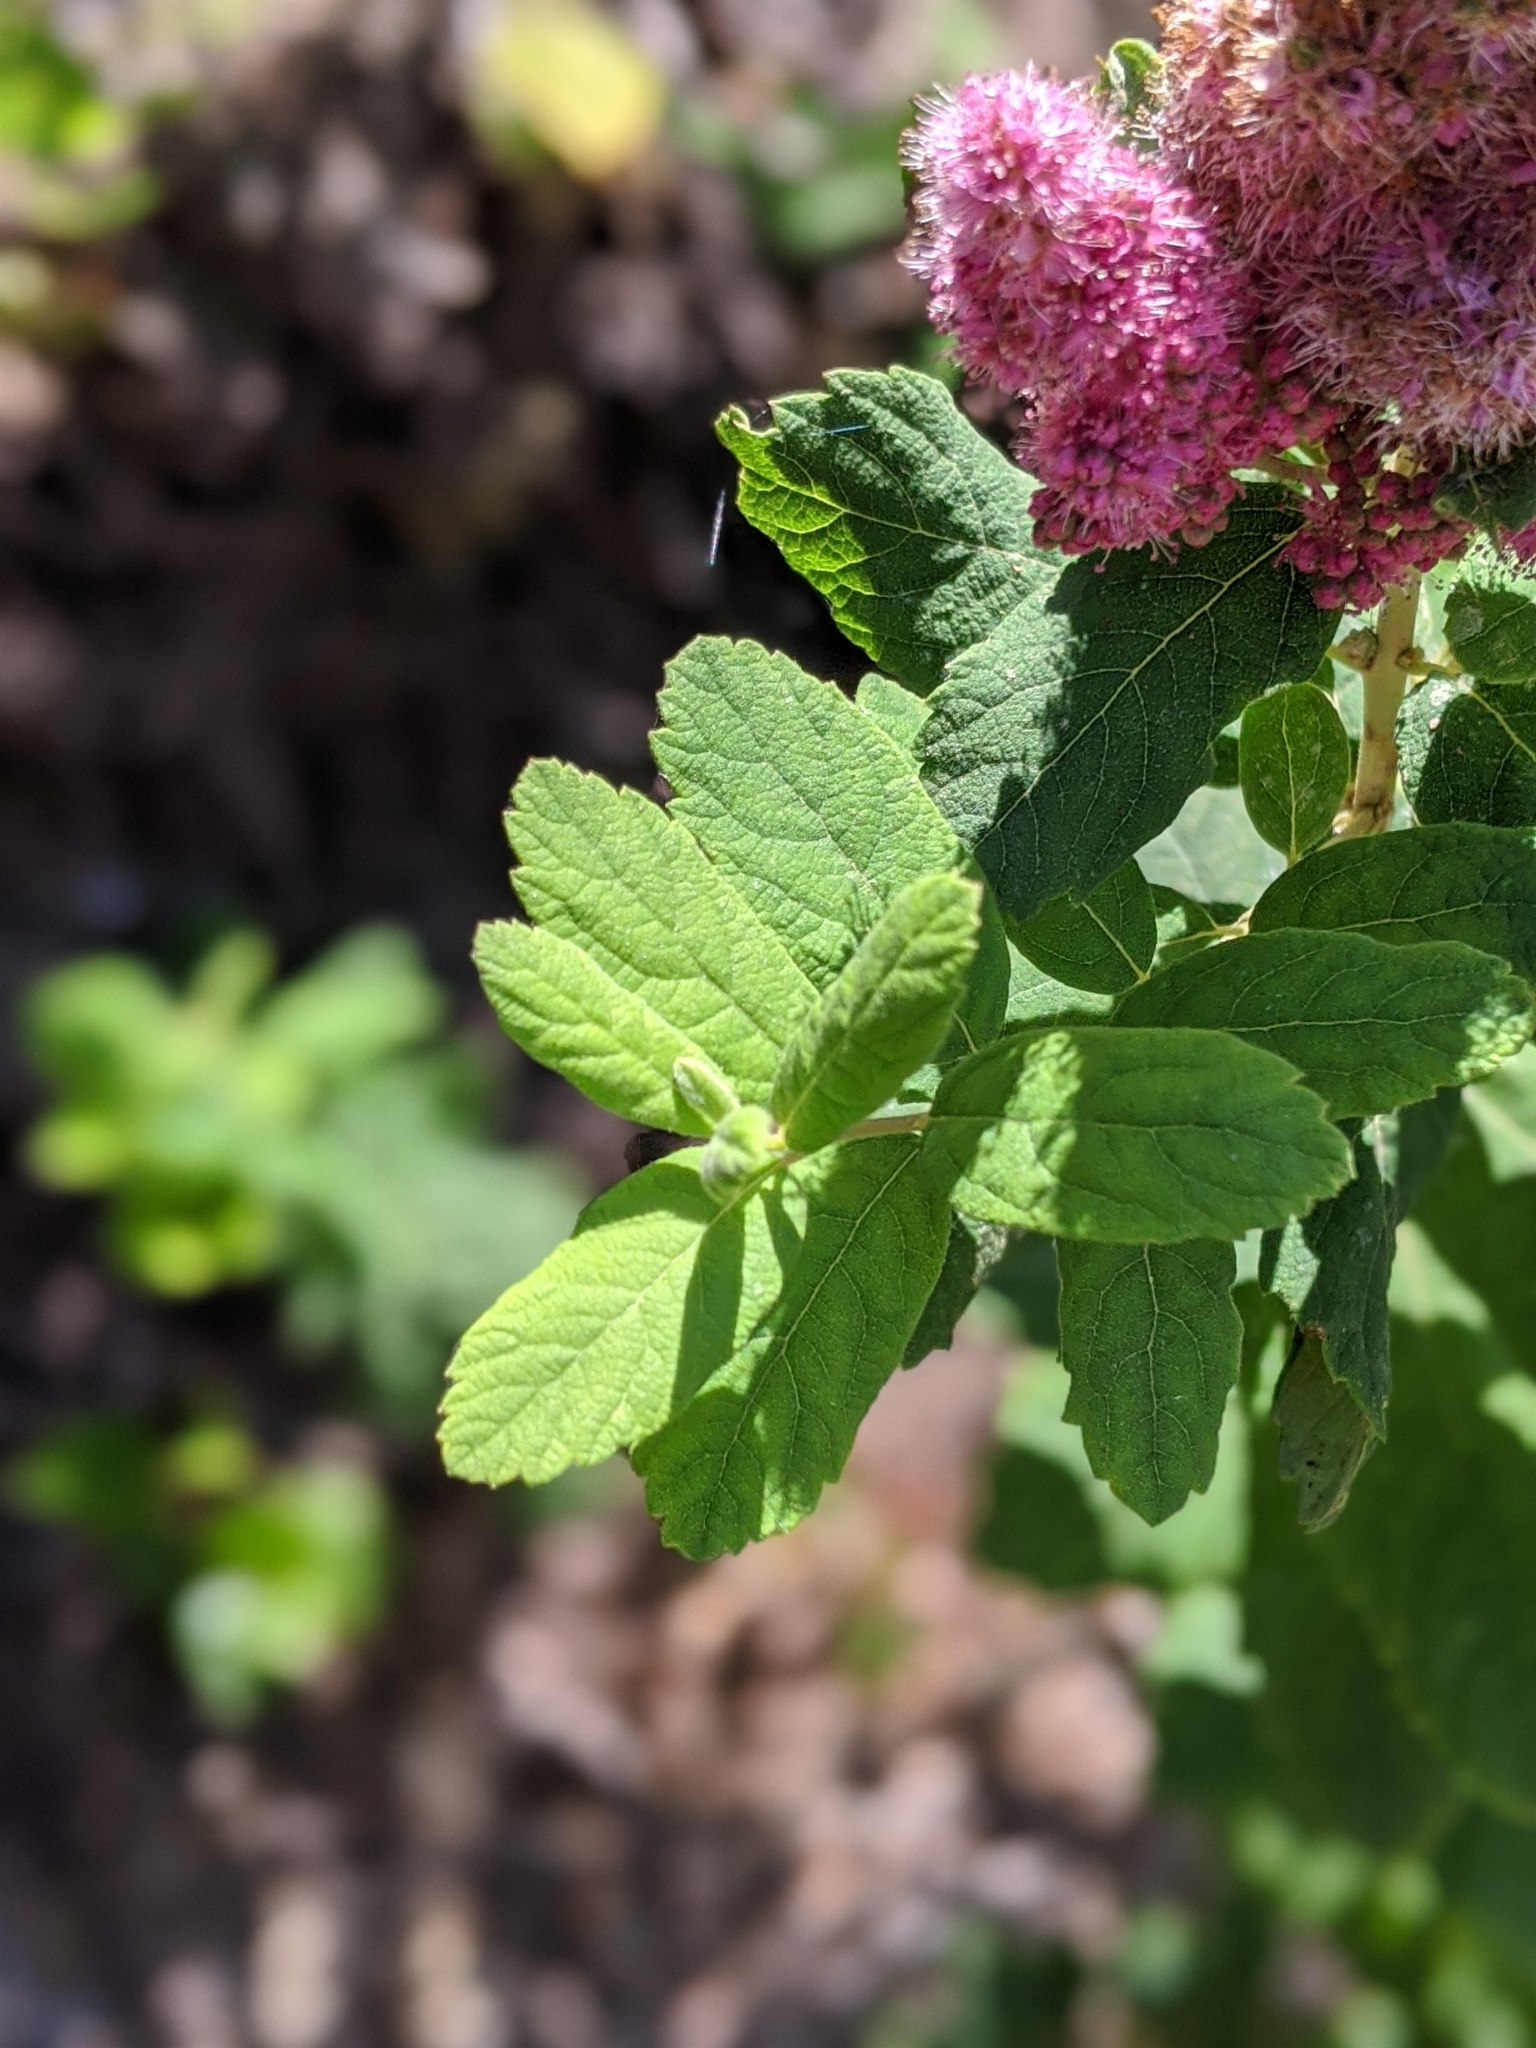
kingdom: Plantae
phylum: Tracheophyta
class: Magnoliopsida
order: Rosales
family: Rosaceae
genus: Spiraea
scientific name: Spiraea douglasii
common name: Steeplebush
